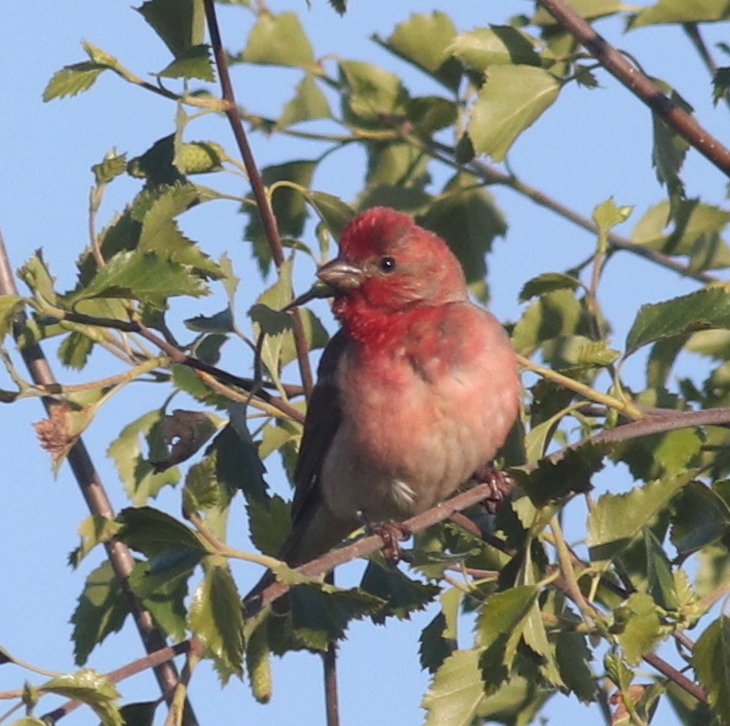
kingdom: Animalia
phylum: Chordata
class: Aves
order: Passeriformes
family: Fringillidae
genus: Carpodacus
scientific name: Carpodacus erythrinus
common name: Common rosefinch
